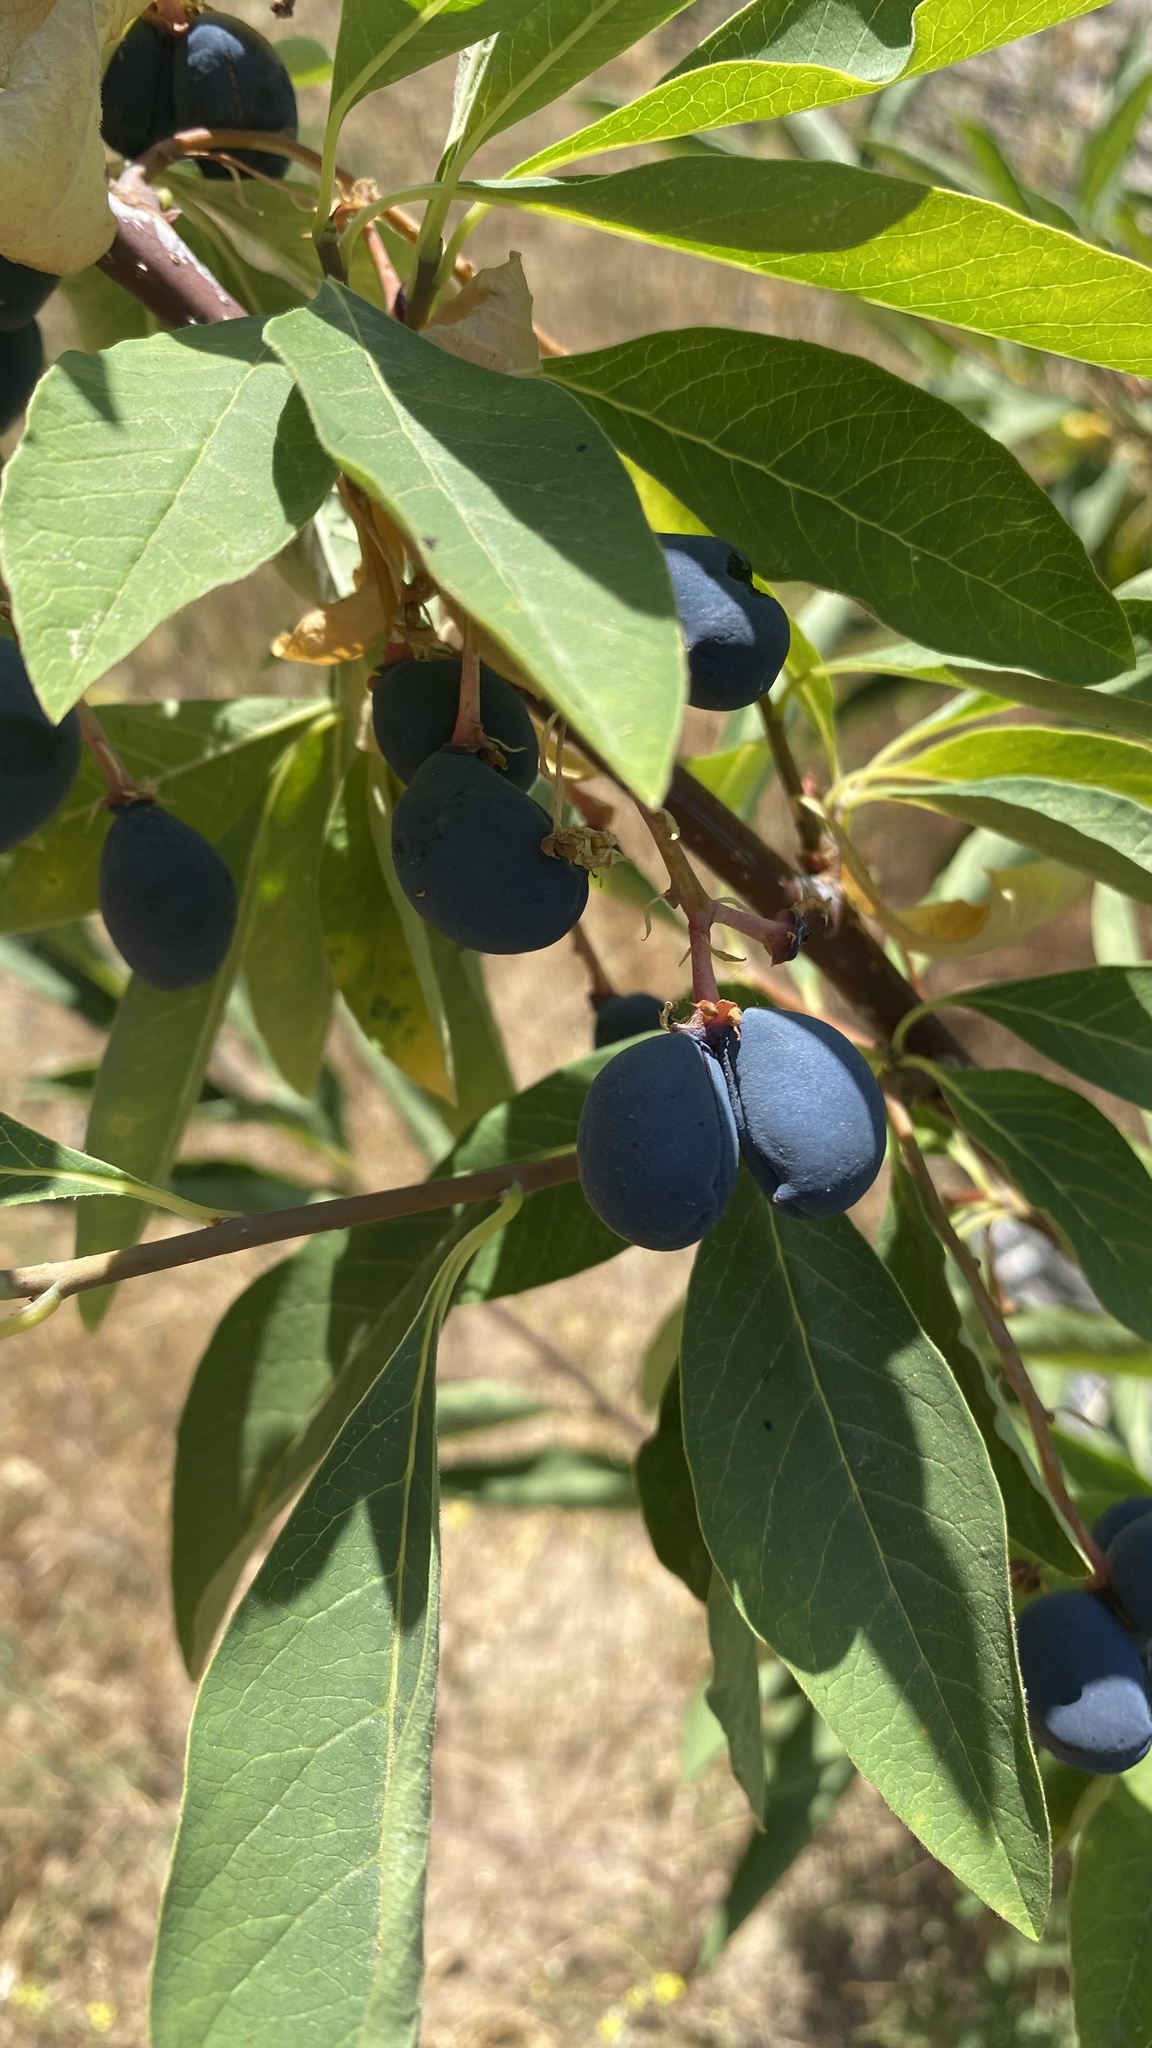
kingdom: Plantae
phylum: Tracheophyta
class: Magnoliopsida
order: Rosales
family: Rosaceae
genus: Oemleria
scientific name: Oemleria cerasiformis
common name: Osoberry
